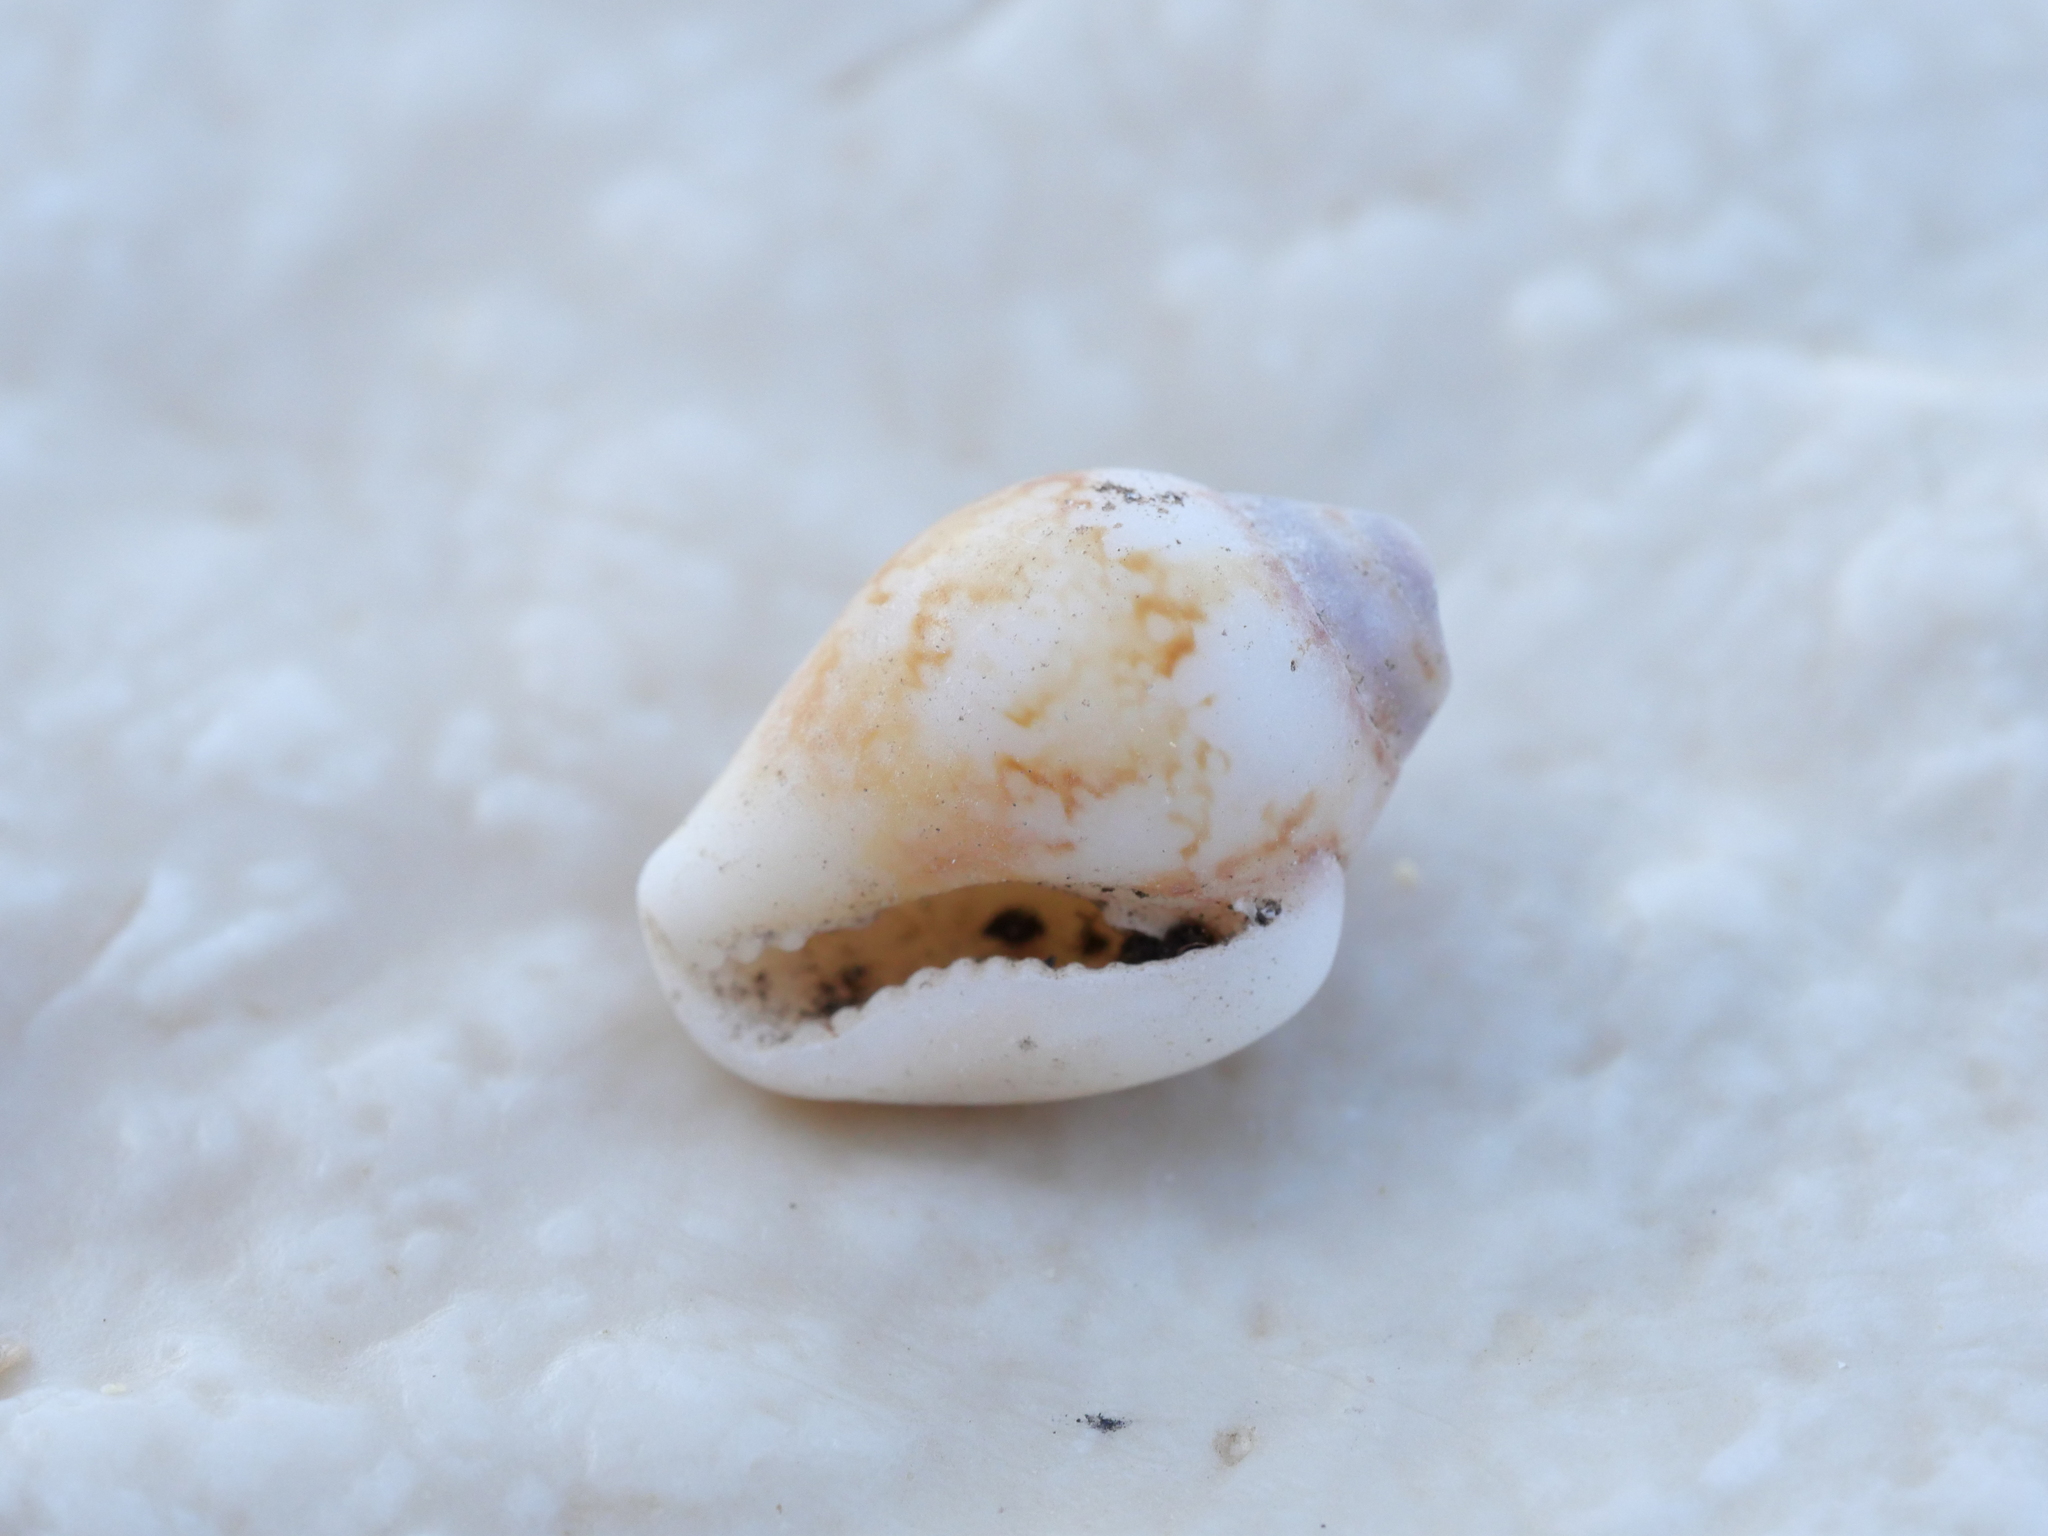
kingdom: Animalia
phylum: Mollusca
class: Gastropoda
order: Neogastropoda
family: Columbellidae
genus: Columbella
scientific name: Columbella rustica
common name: Rustic dove shell
